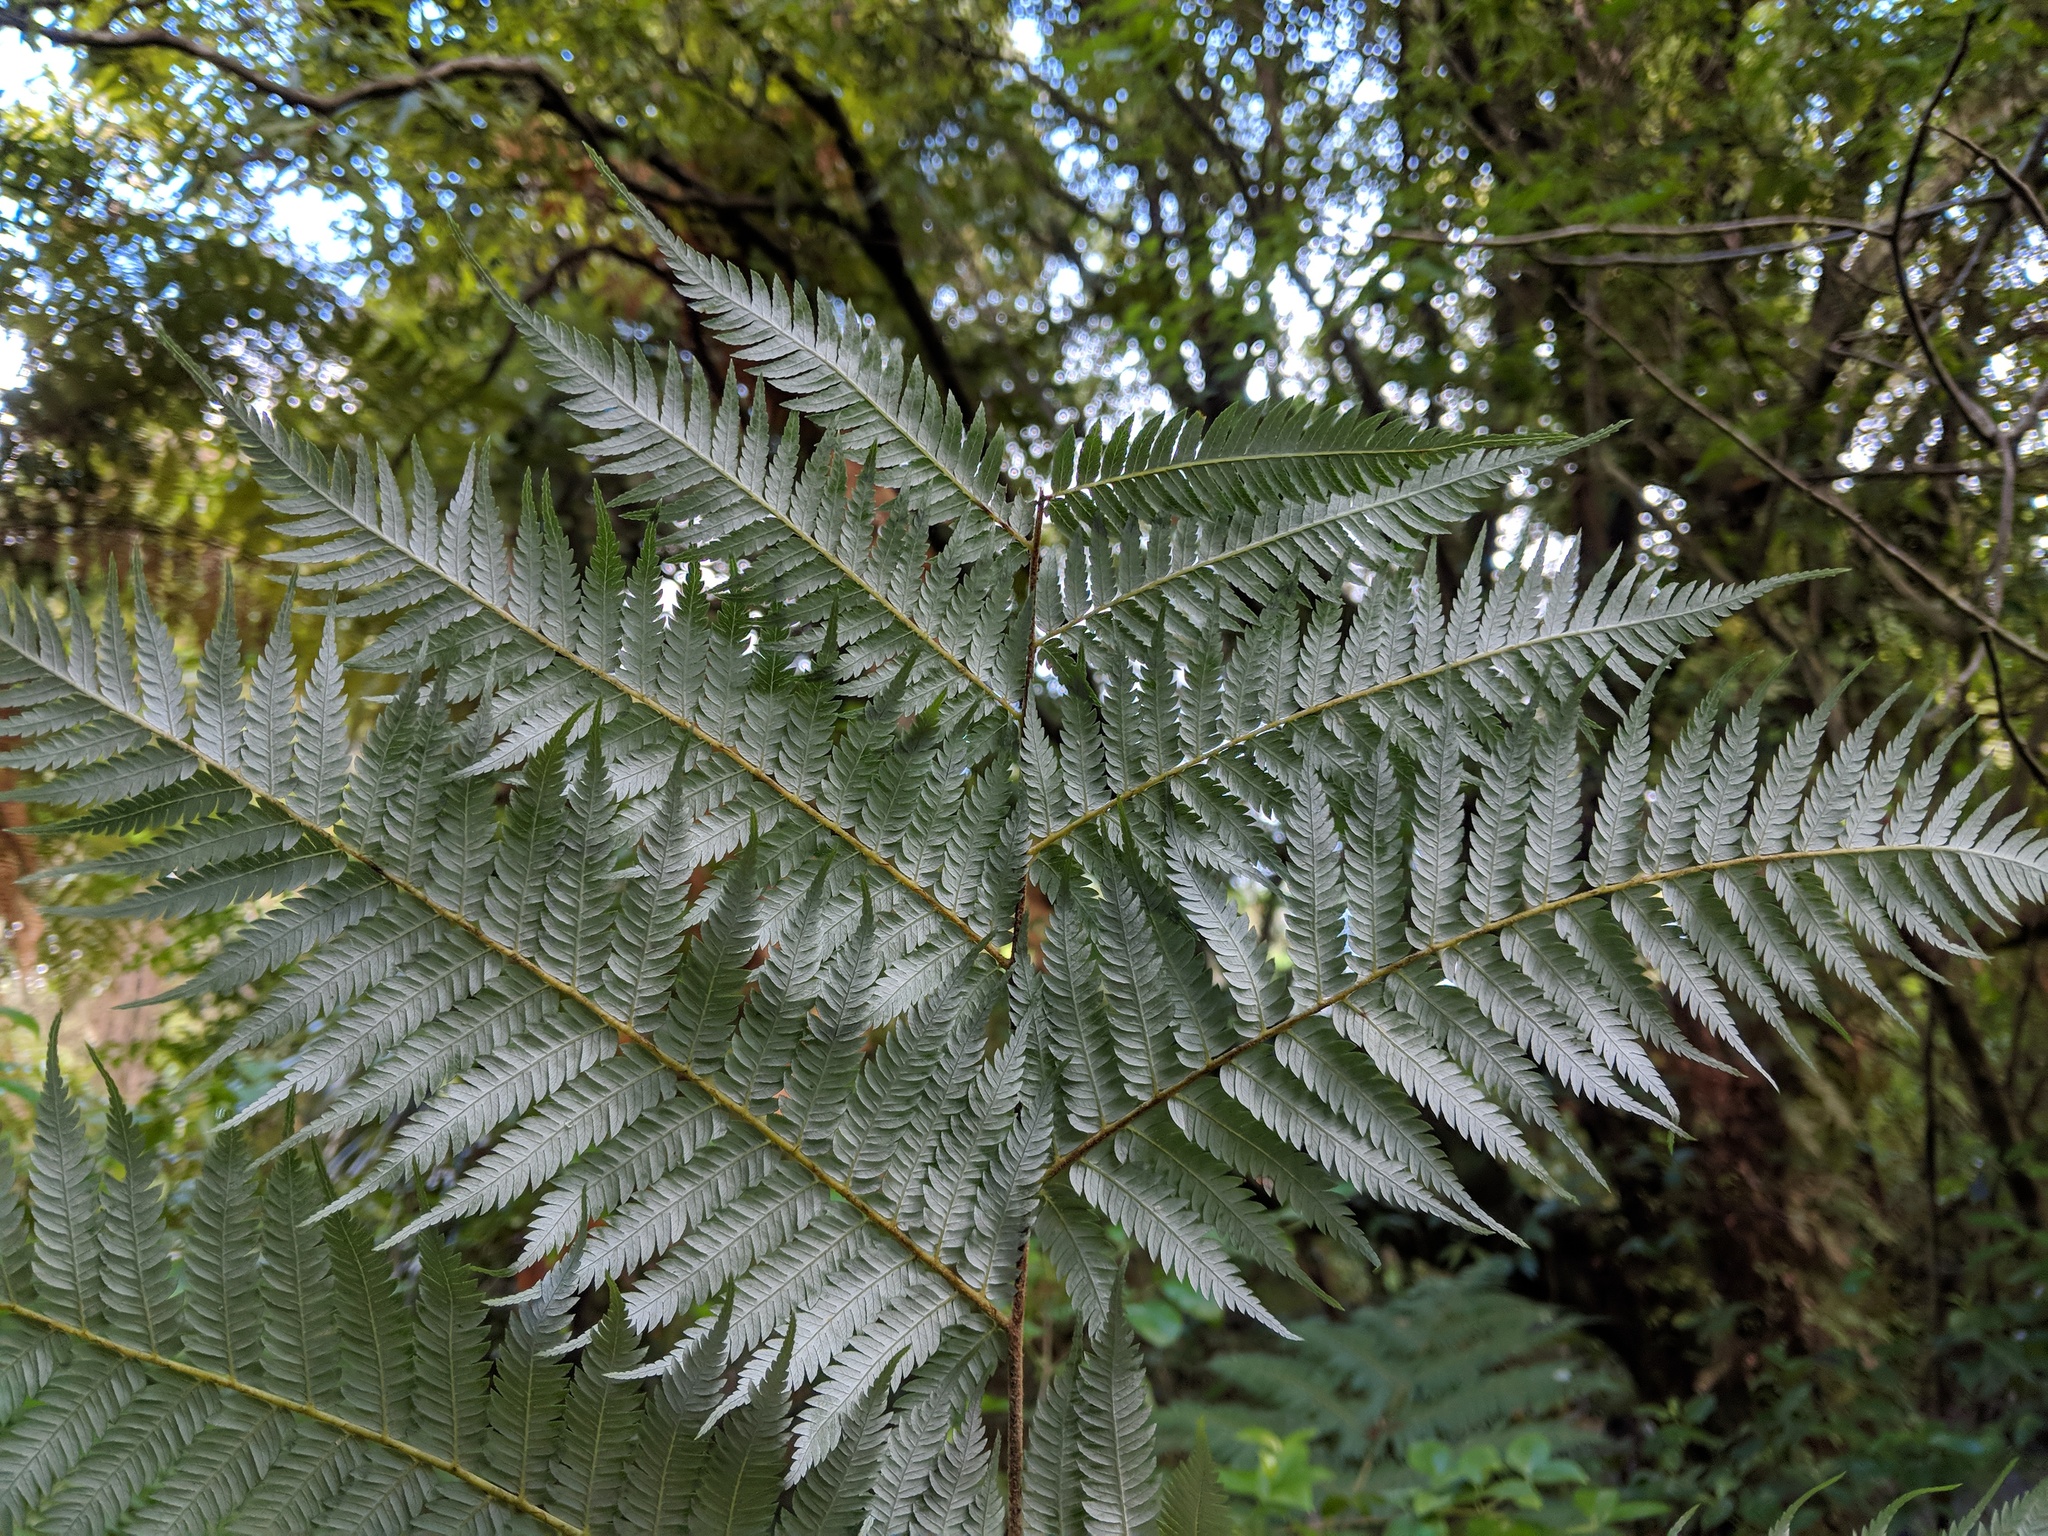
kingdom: Plantae
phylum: Tracheophyta
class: Polypodiopsida
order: Cyatheales
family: Cyatheaceae
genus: Alsophila
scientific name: Alsophila dealbata
